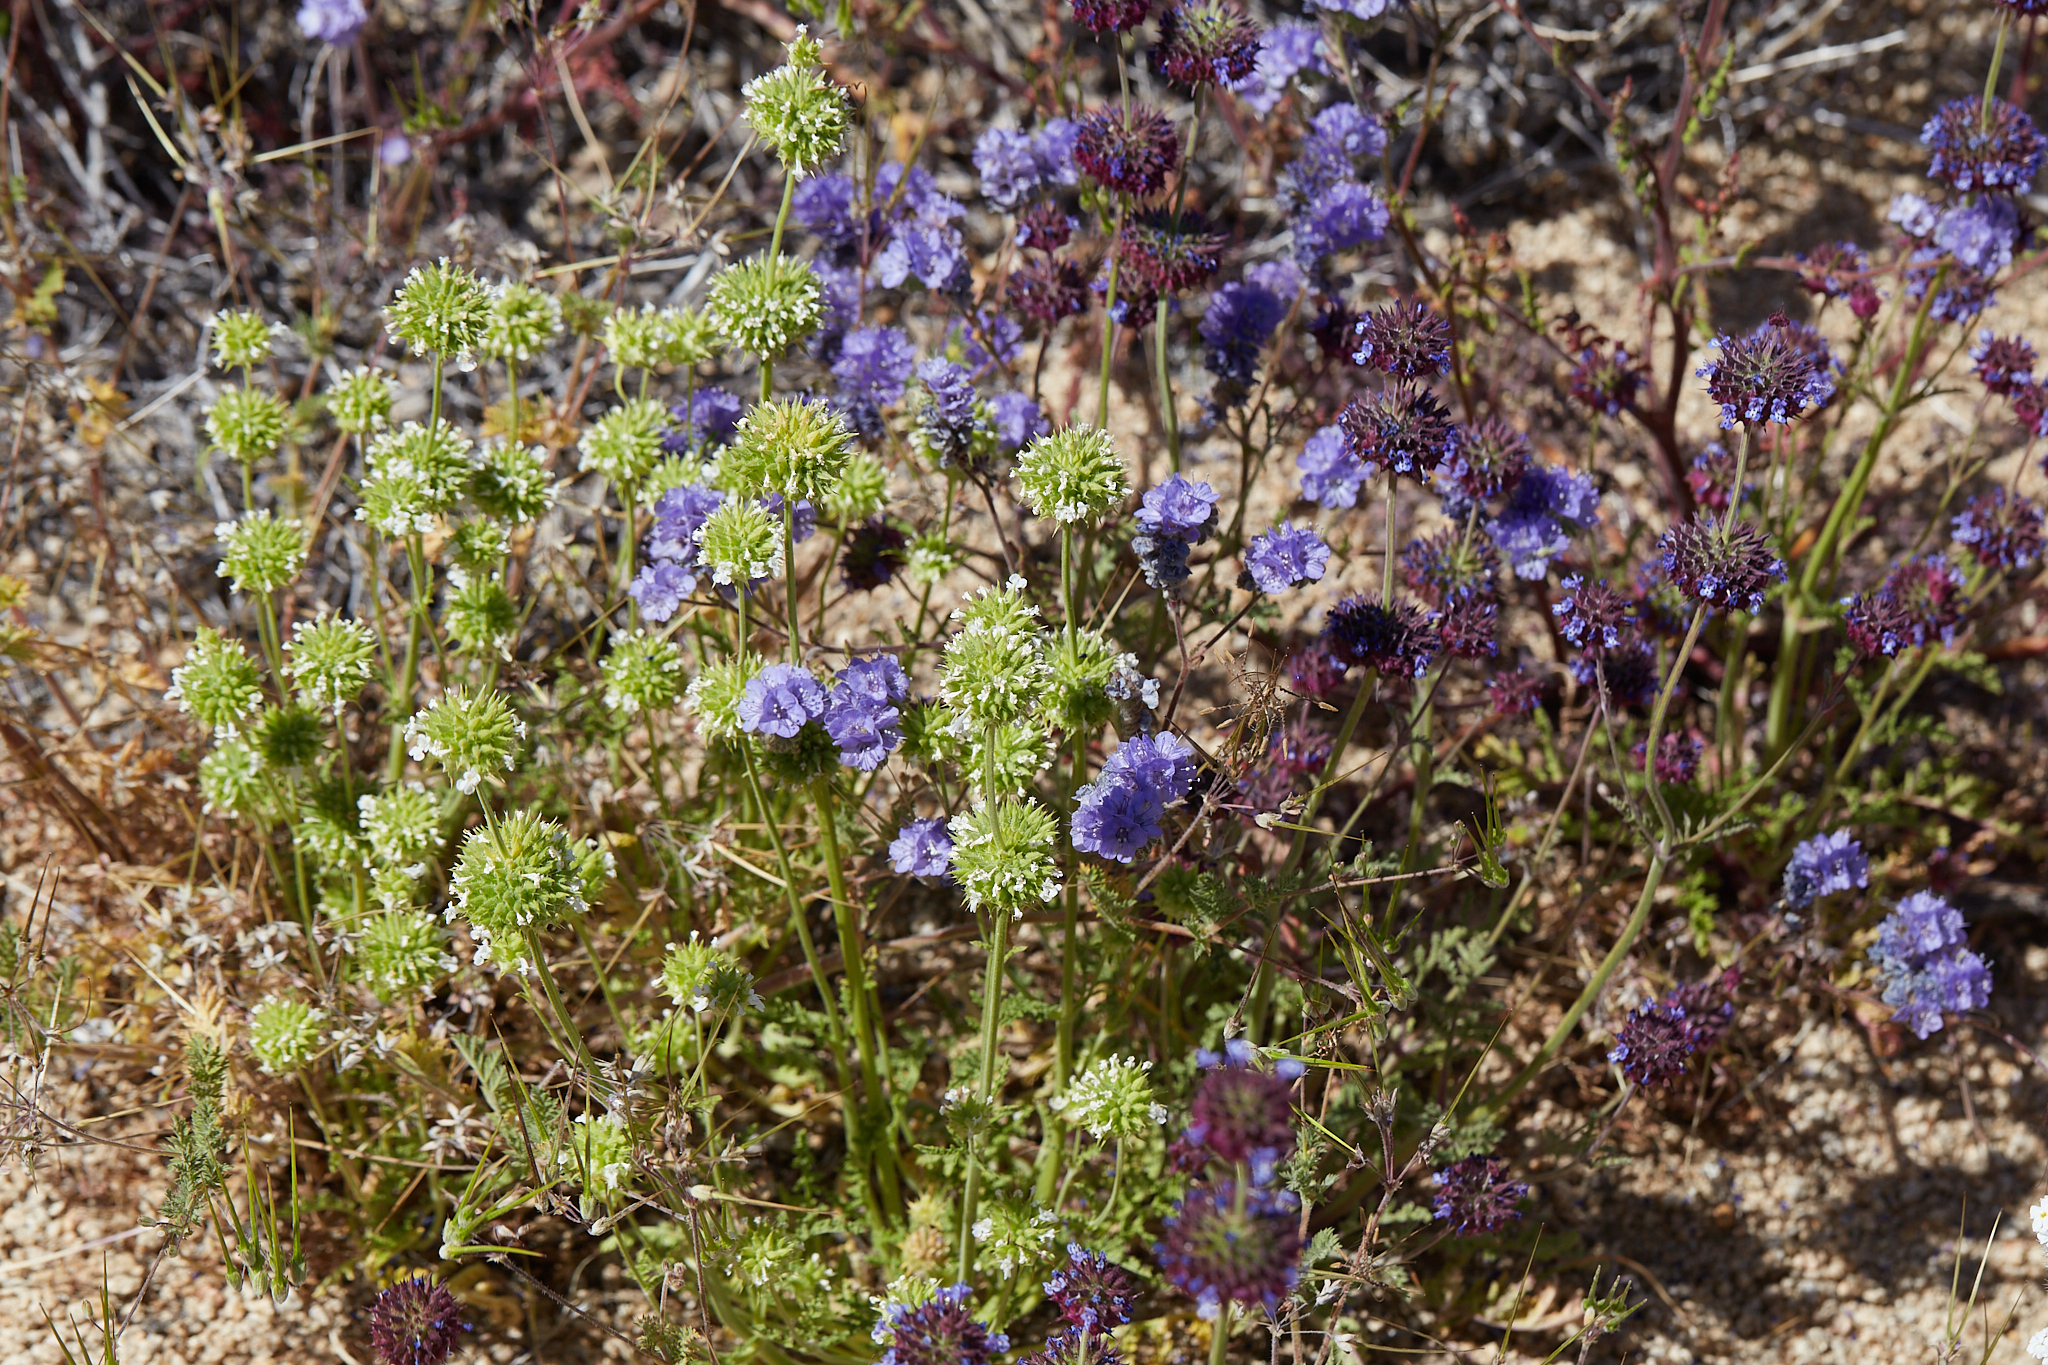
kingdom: Plantae
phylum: Tracheophyta
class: Magnoliopsida
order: Lamiales
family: Lamiaceae
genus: Salvia
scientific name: Salvia columbariae
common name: Chia
